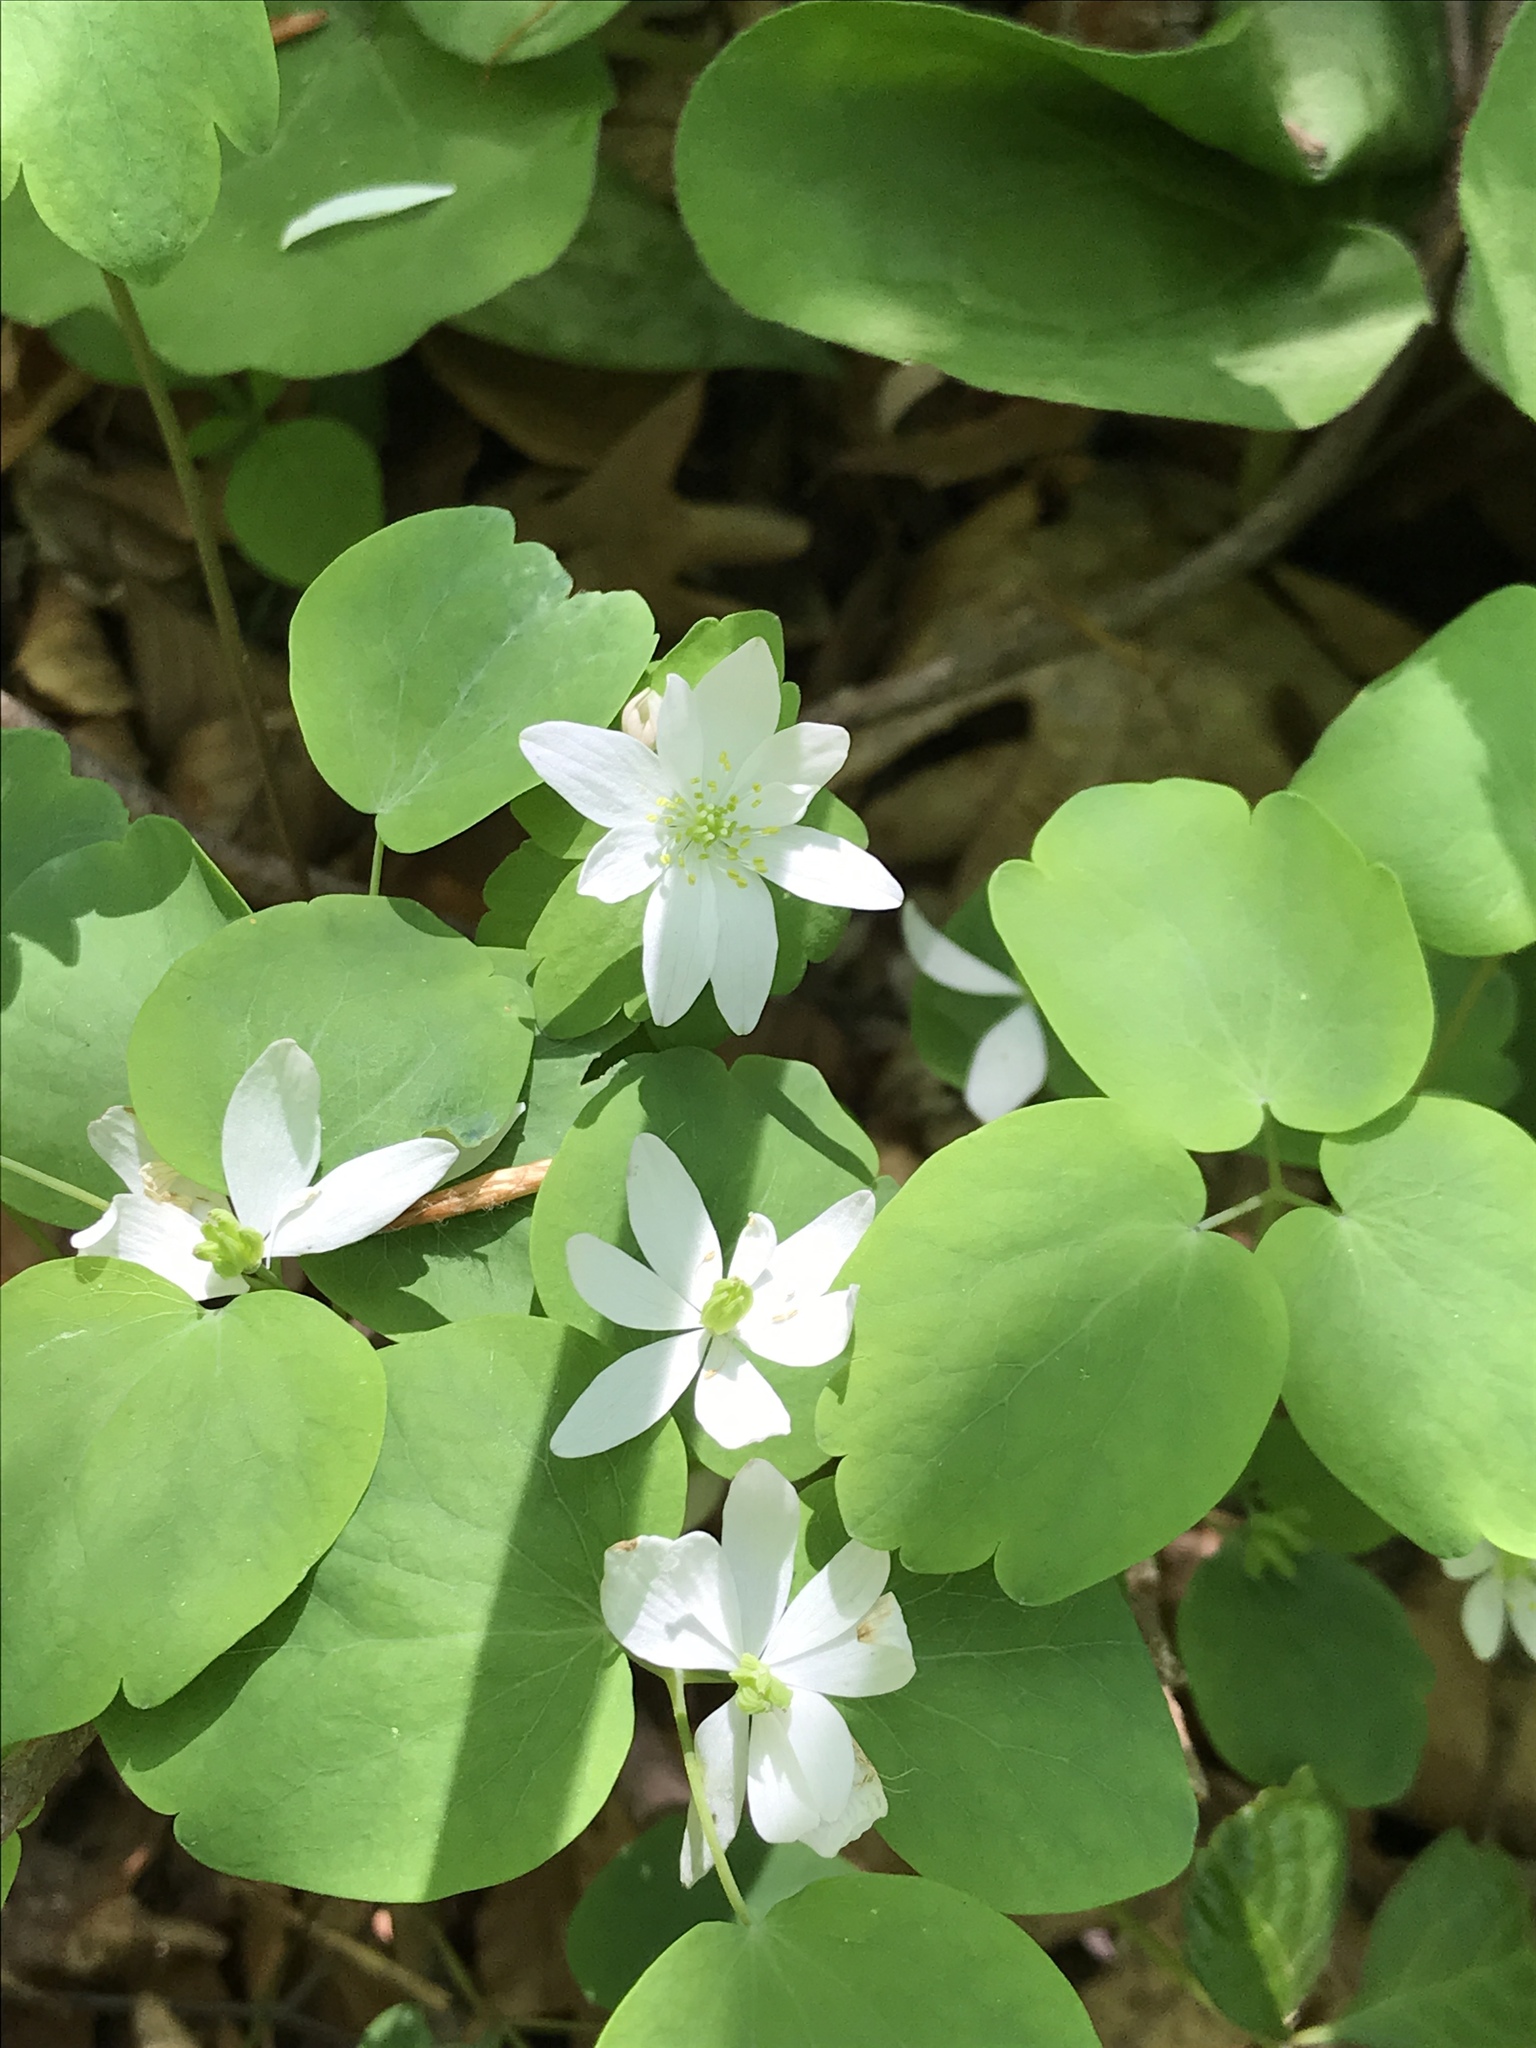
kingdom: Plantae
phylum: Tracheophyta
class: Magnoliopsida
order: Ranunculales
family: Ranunculaceae
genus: Thalictrum
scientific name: Thalictrum thalictroides
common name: Rue-anemone
